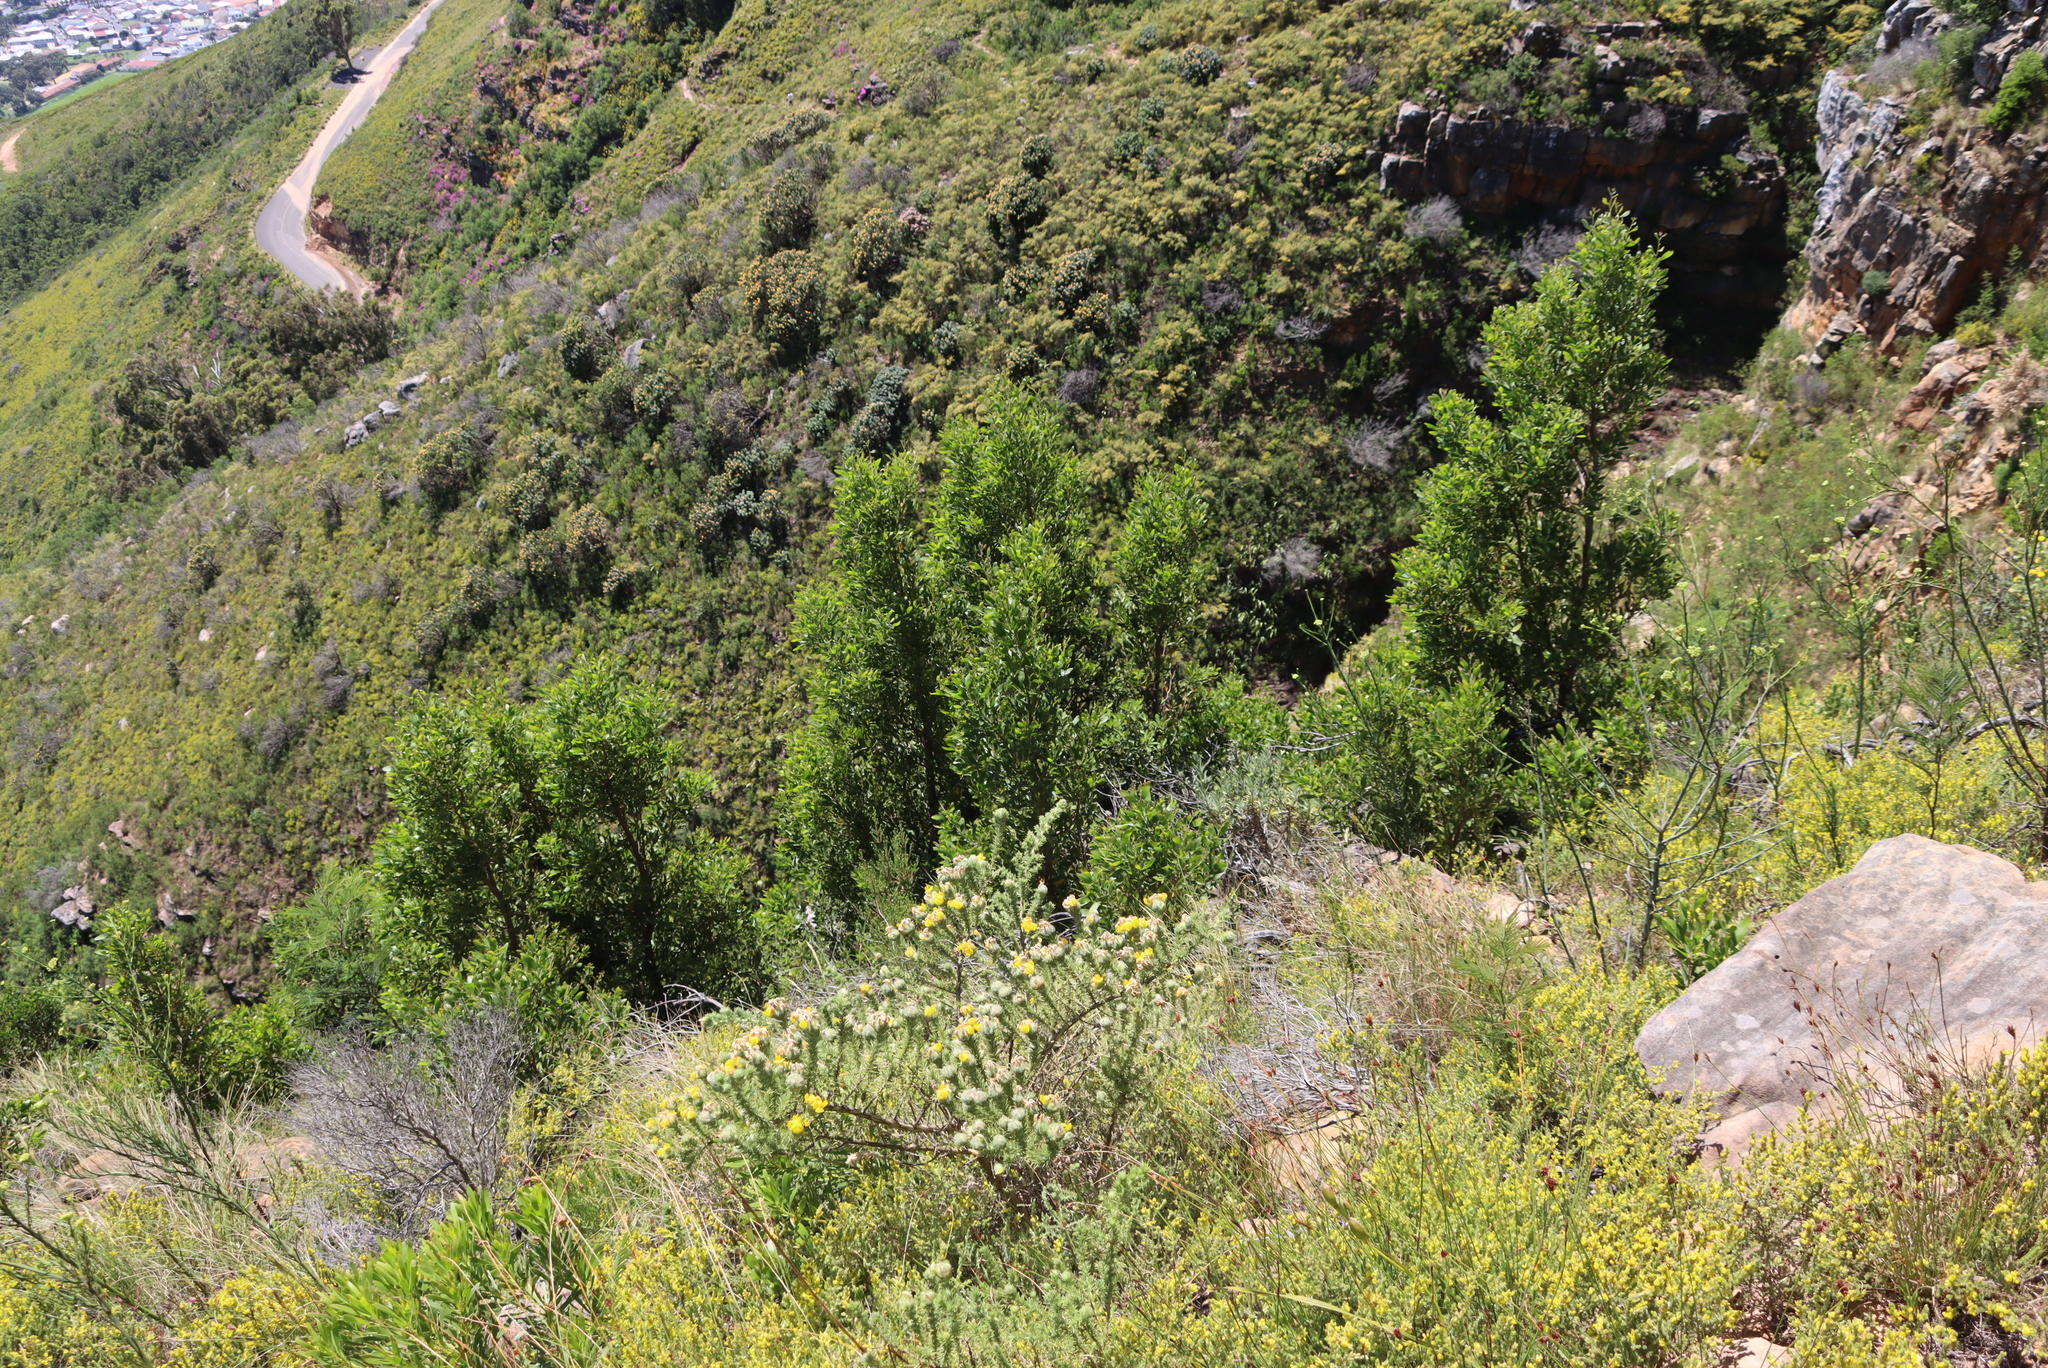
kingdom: Plantae
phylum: Tracheophyta
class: Magnoliopsida
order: Fabales
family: Fabaceae
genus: Acacia
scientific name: Acacia melanoxylon
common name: Blackwood
